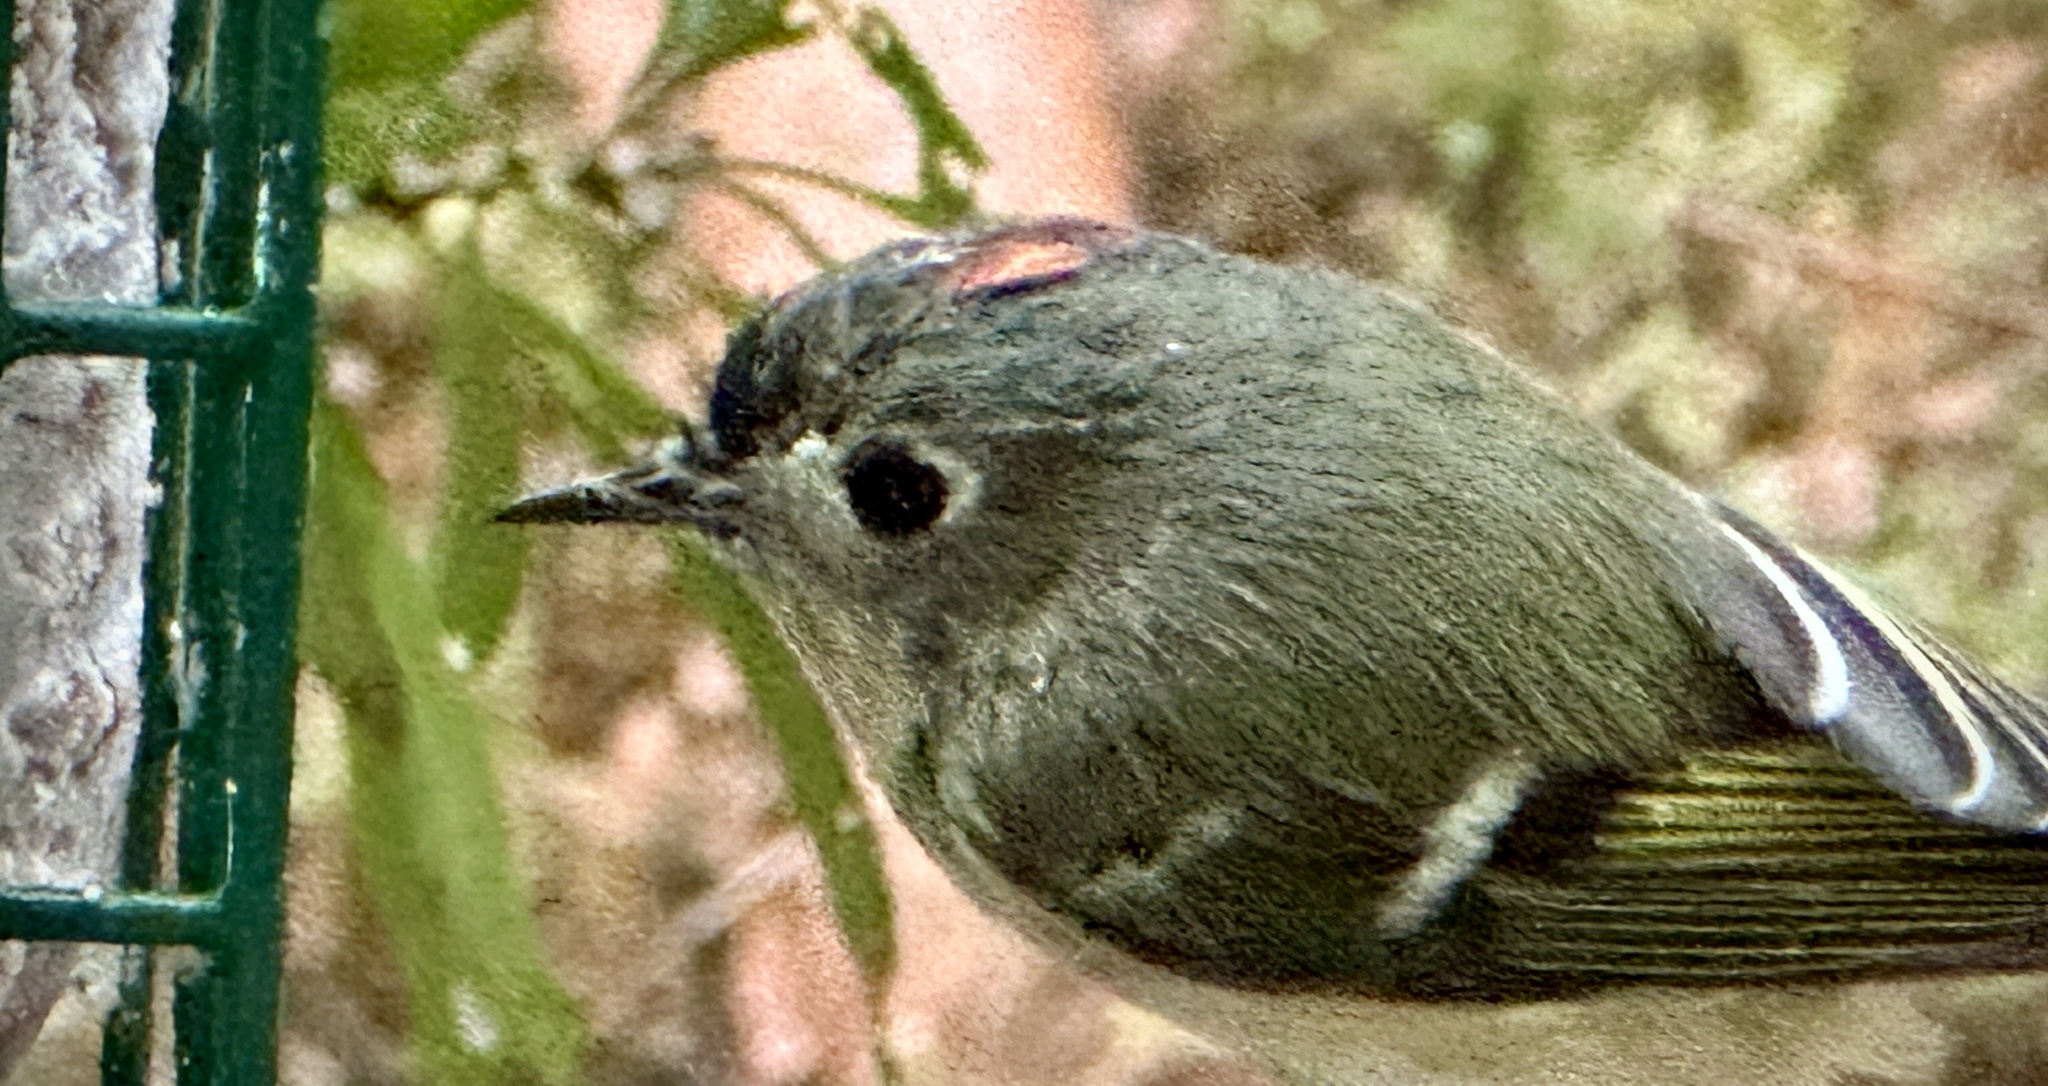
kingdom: Animalia
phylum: Chordata
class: Aves
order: Passeriformes
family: Regulidae
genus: Regulus
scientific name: Regulus calendula
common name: Ruby-crowned kinglet
